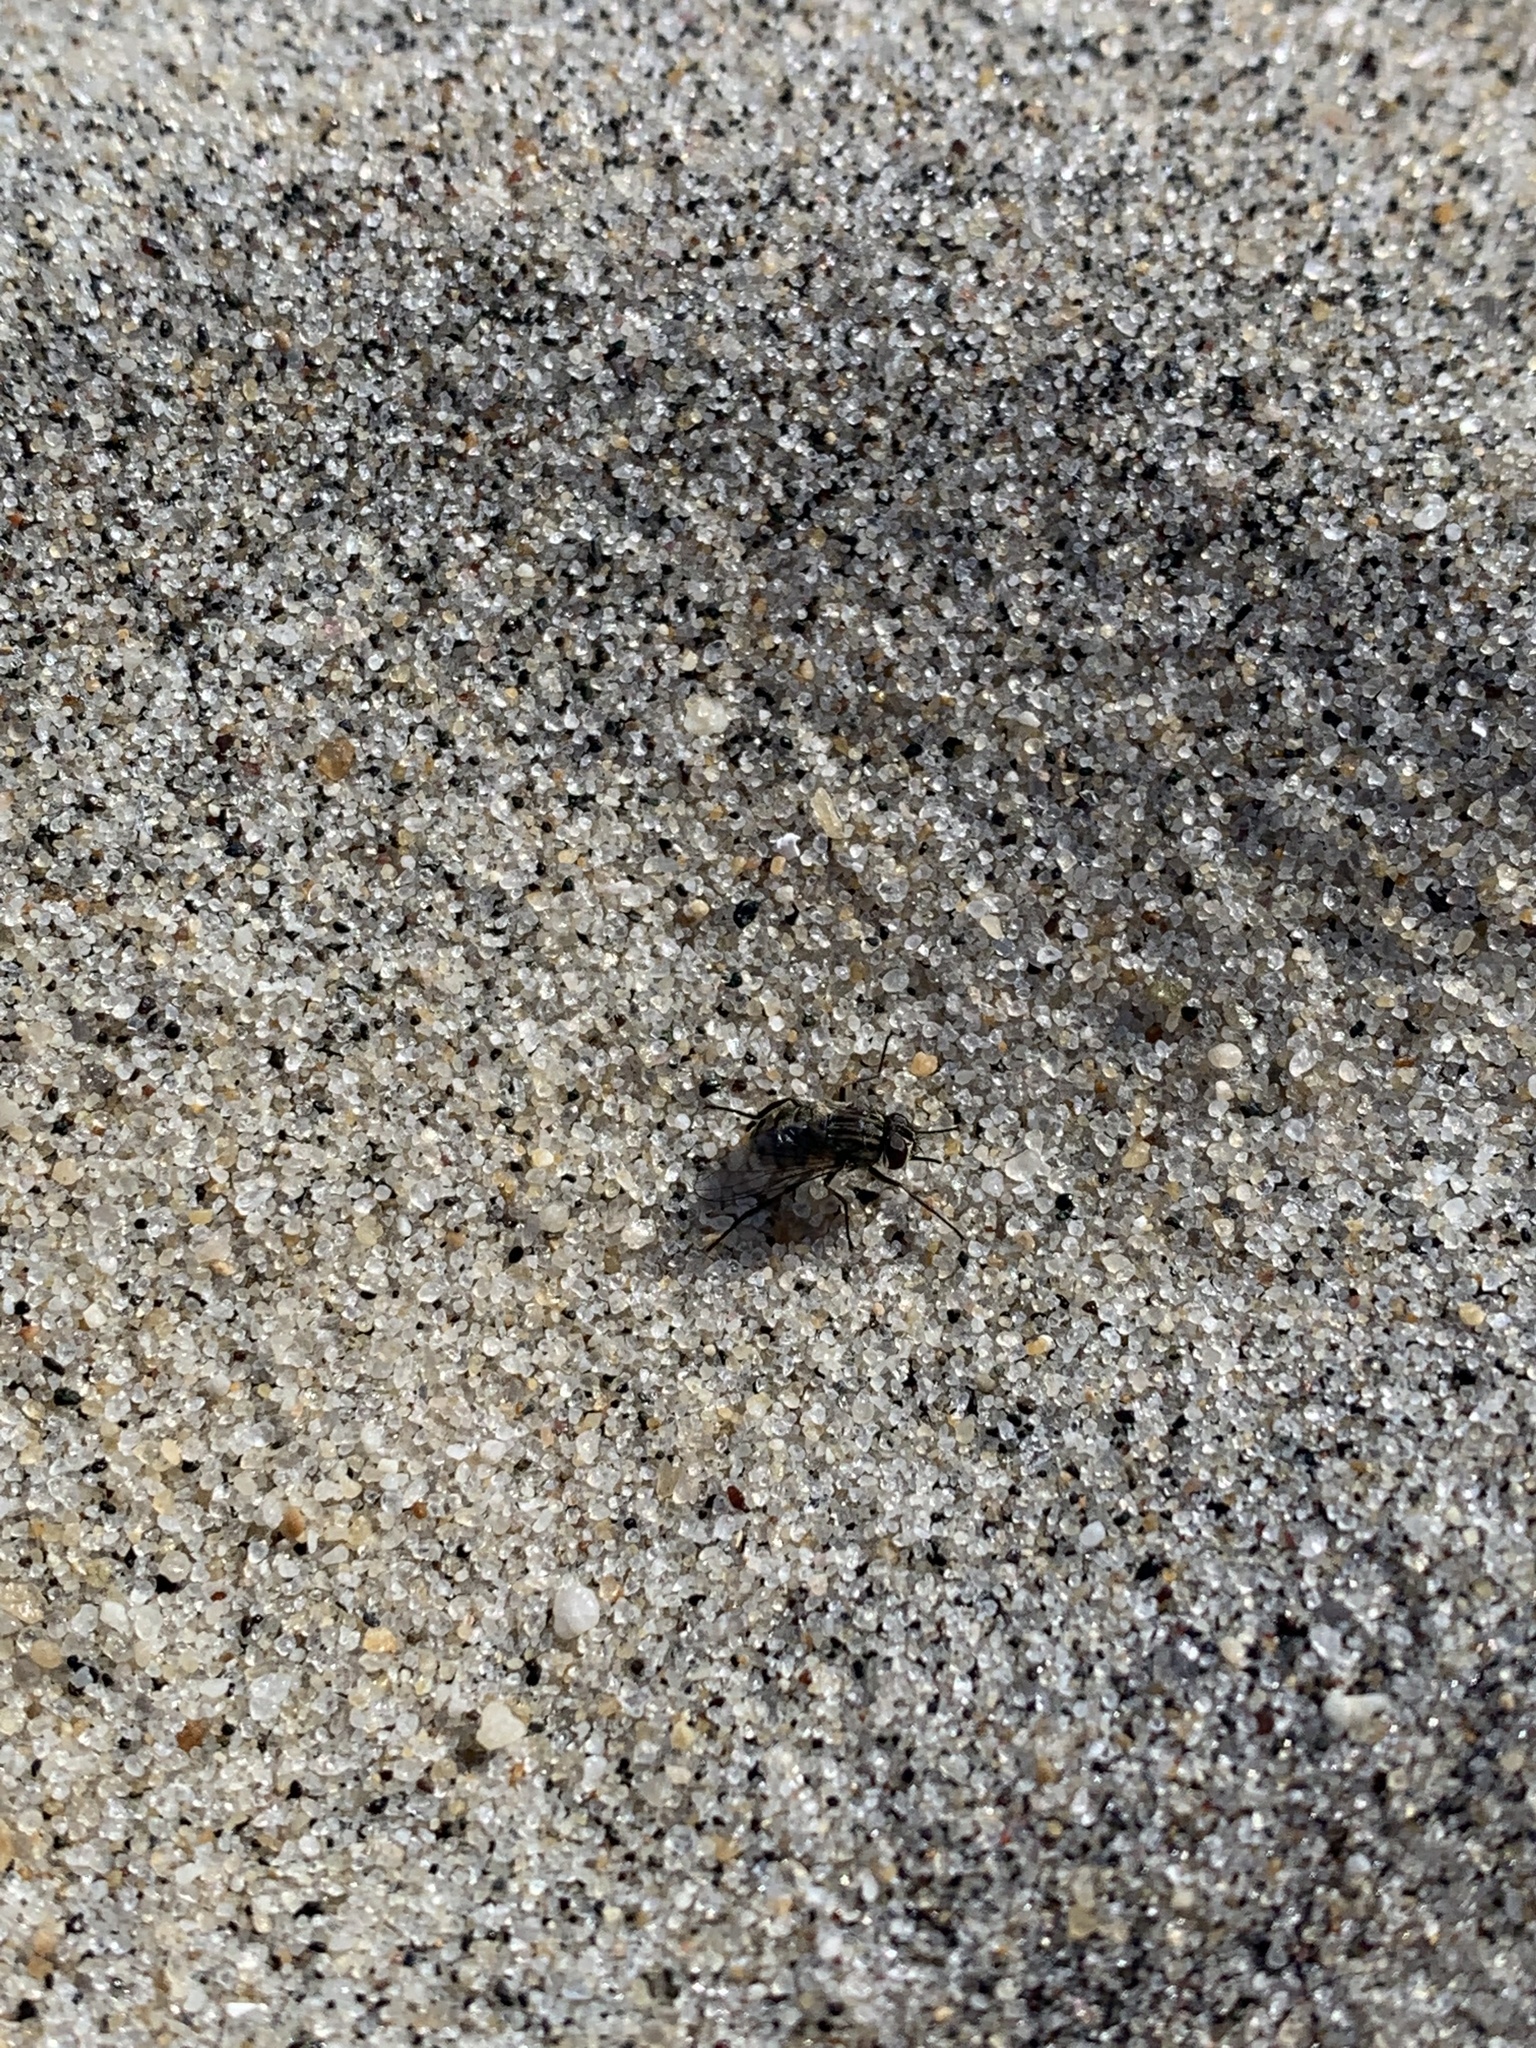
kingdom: Animalia
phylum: Arthropoda
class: Insecta
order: Diptera
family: Muscidae
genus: Stomoxys
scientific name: Stomoxys calcitrans
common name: Stable fly
